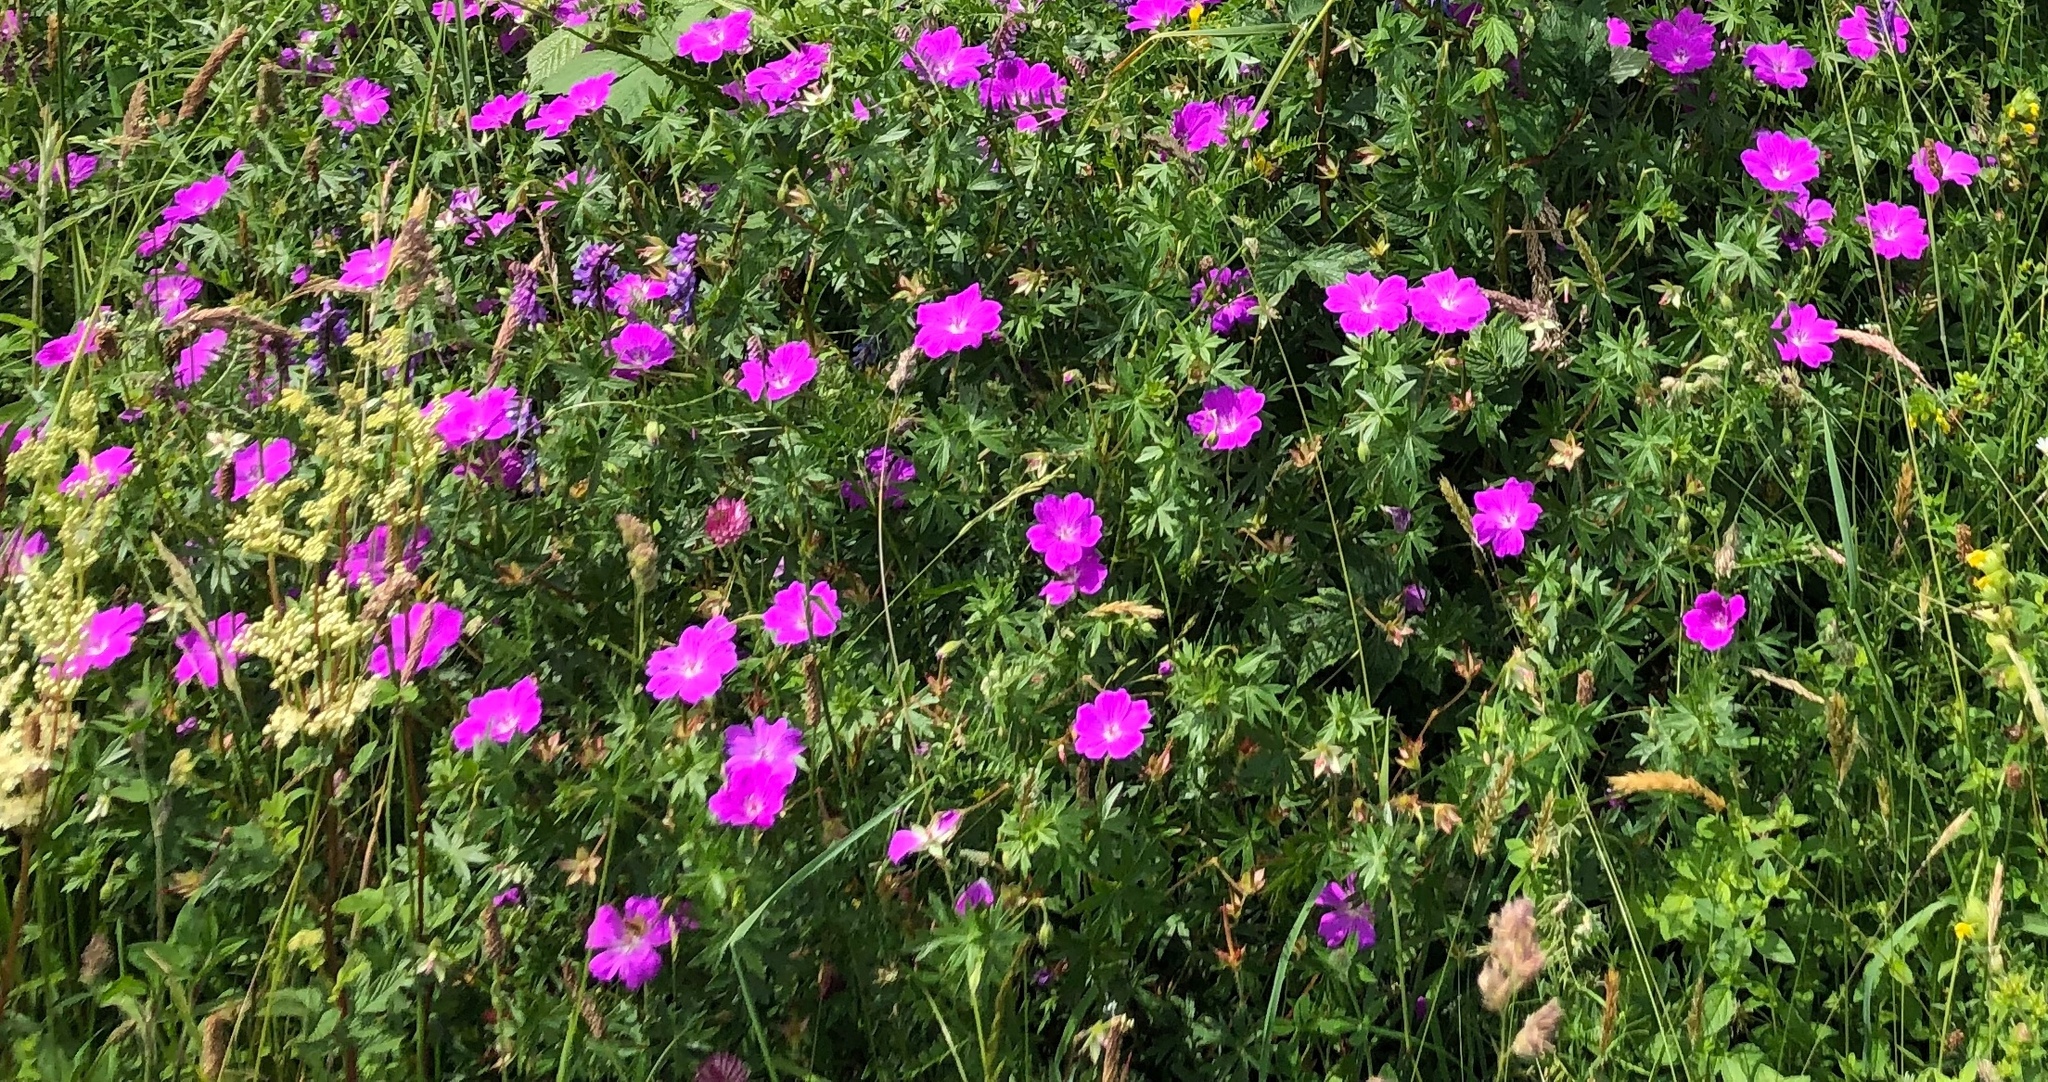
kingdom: Plantae
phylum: Tracheophyta
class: Magnoliopsida
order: Geraniales
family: Geraniaceae
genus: Geranium
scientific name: Geranium sanguineum
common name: Bloody crane's-bill
